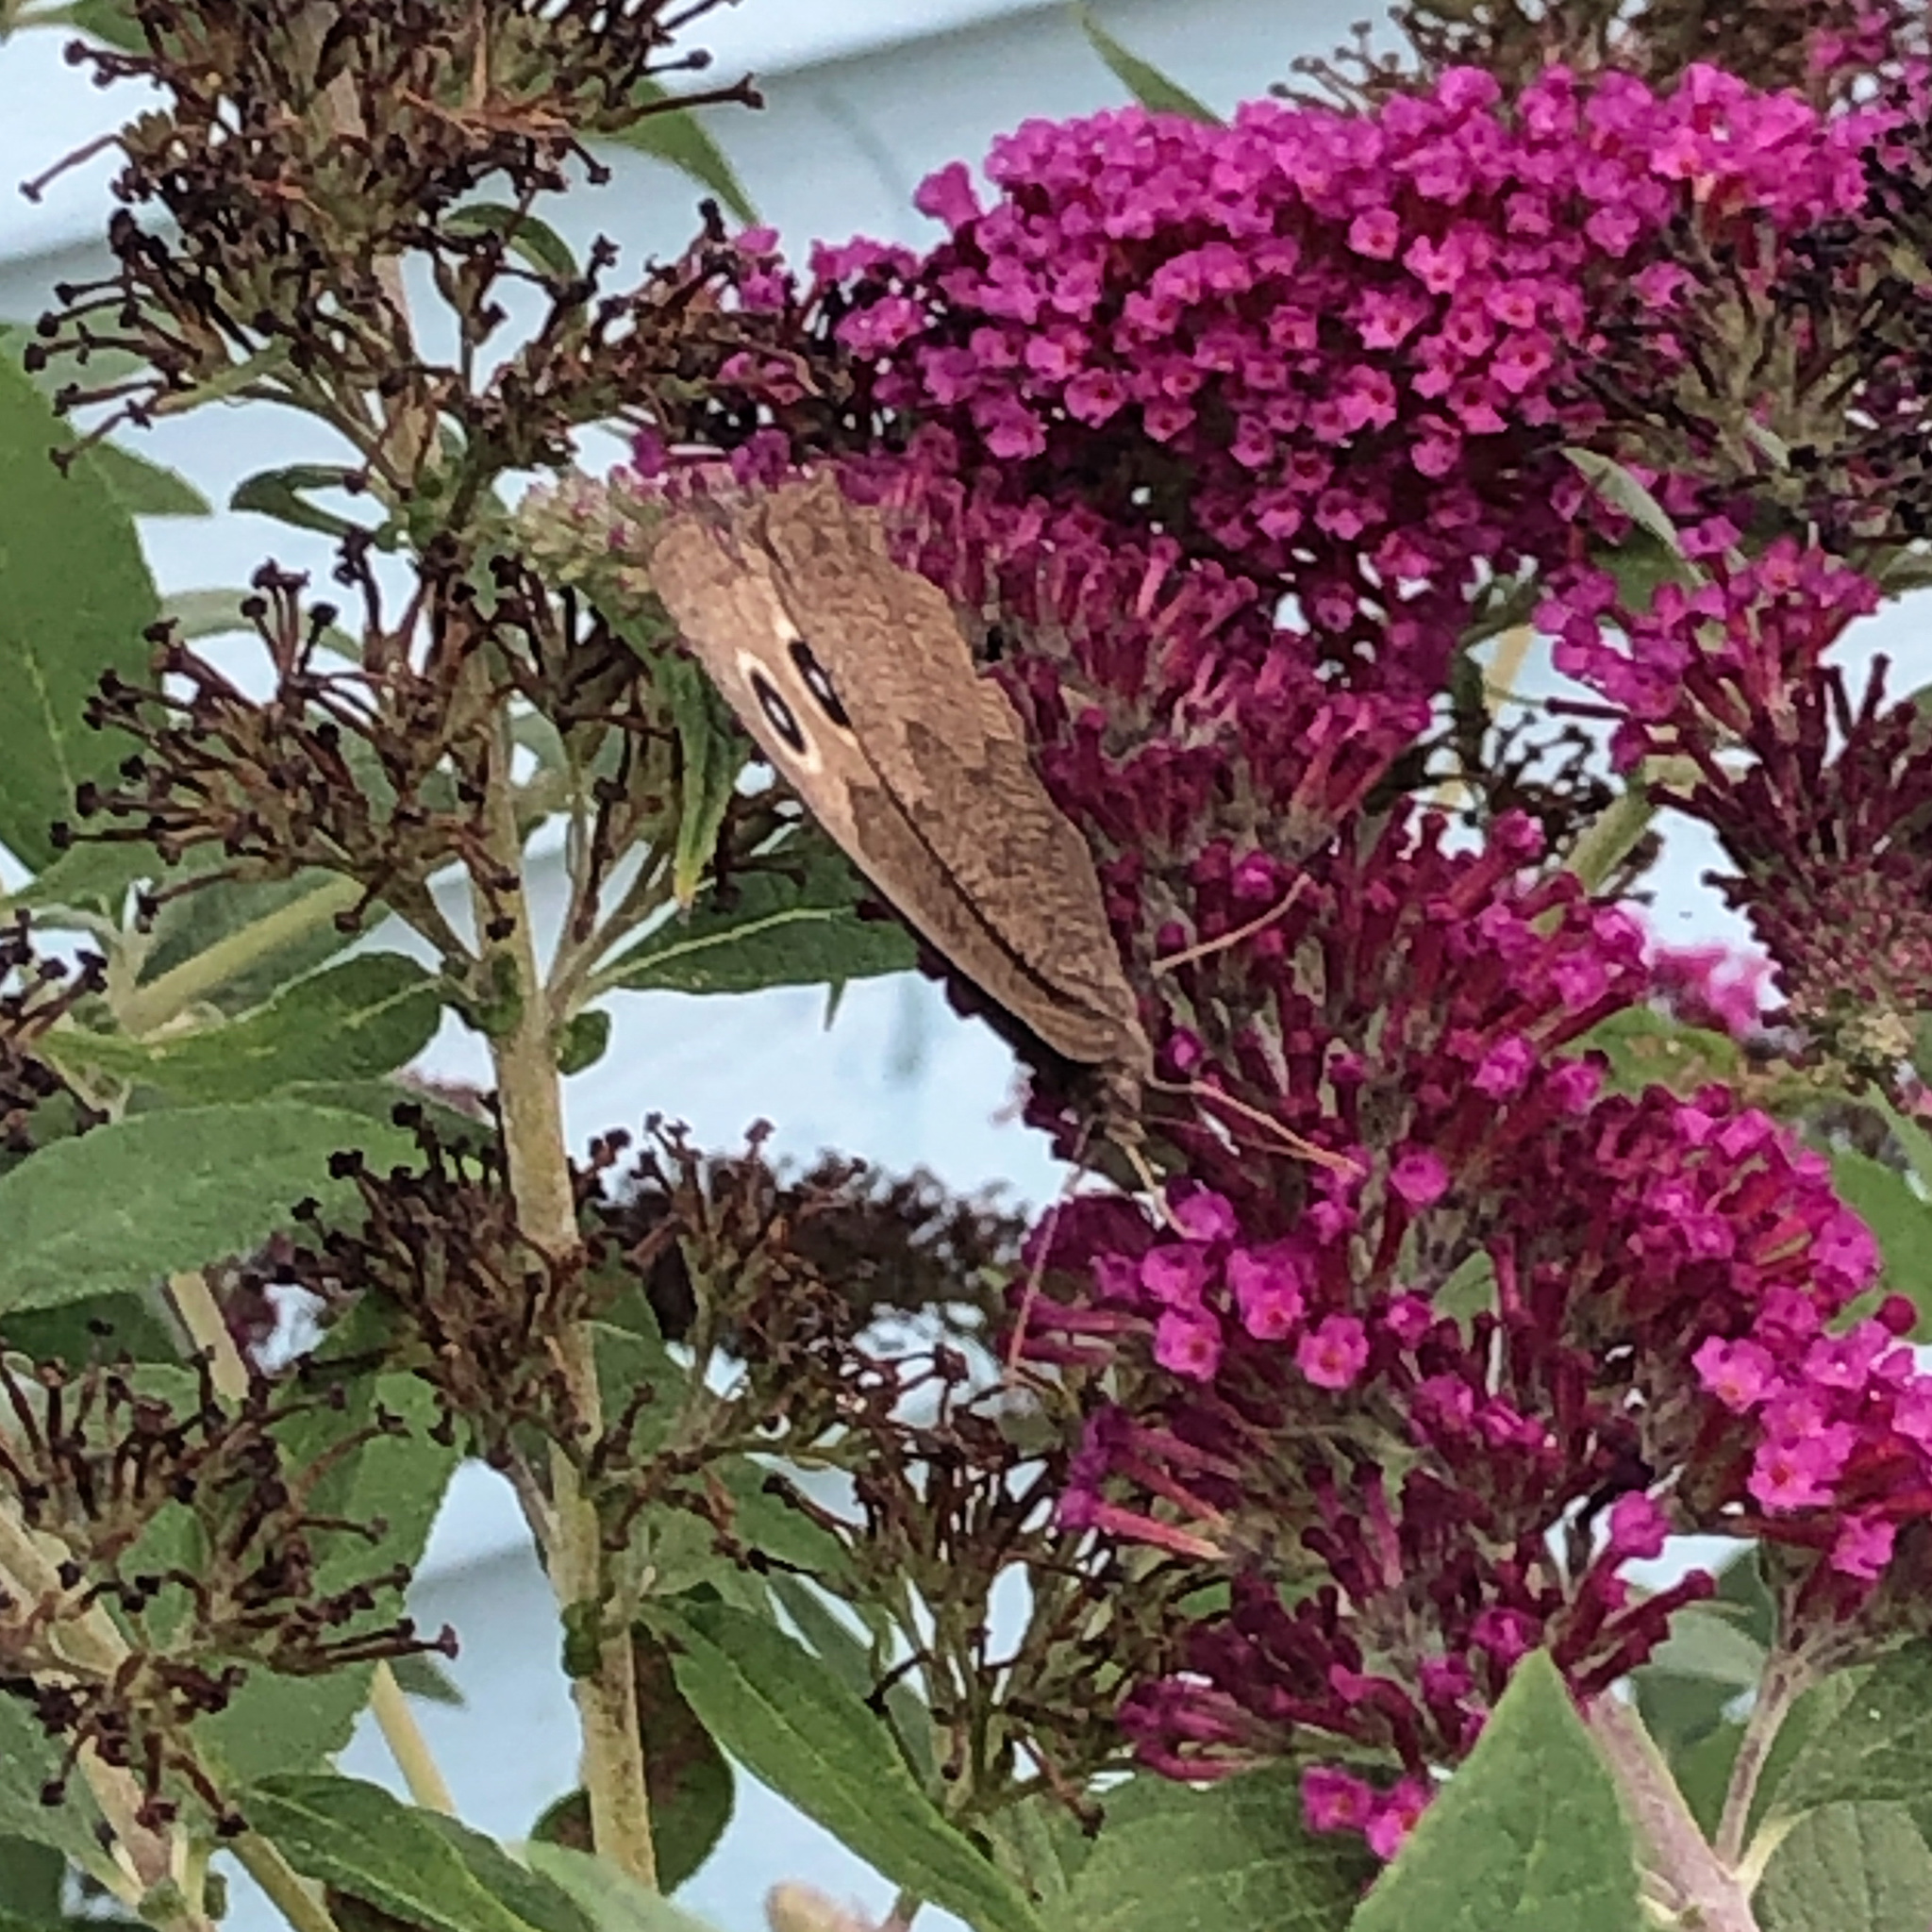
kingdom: Animalia
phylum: Arthropoda
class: Insecta
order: Lepidoptera
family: Nymphalidae
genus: Cercyonis
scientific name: Cercyonis pegala
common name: Common wood-nymph
